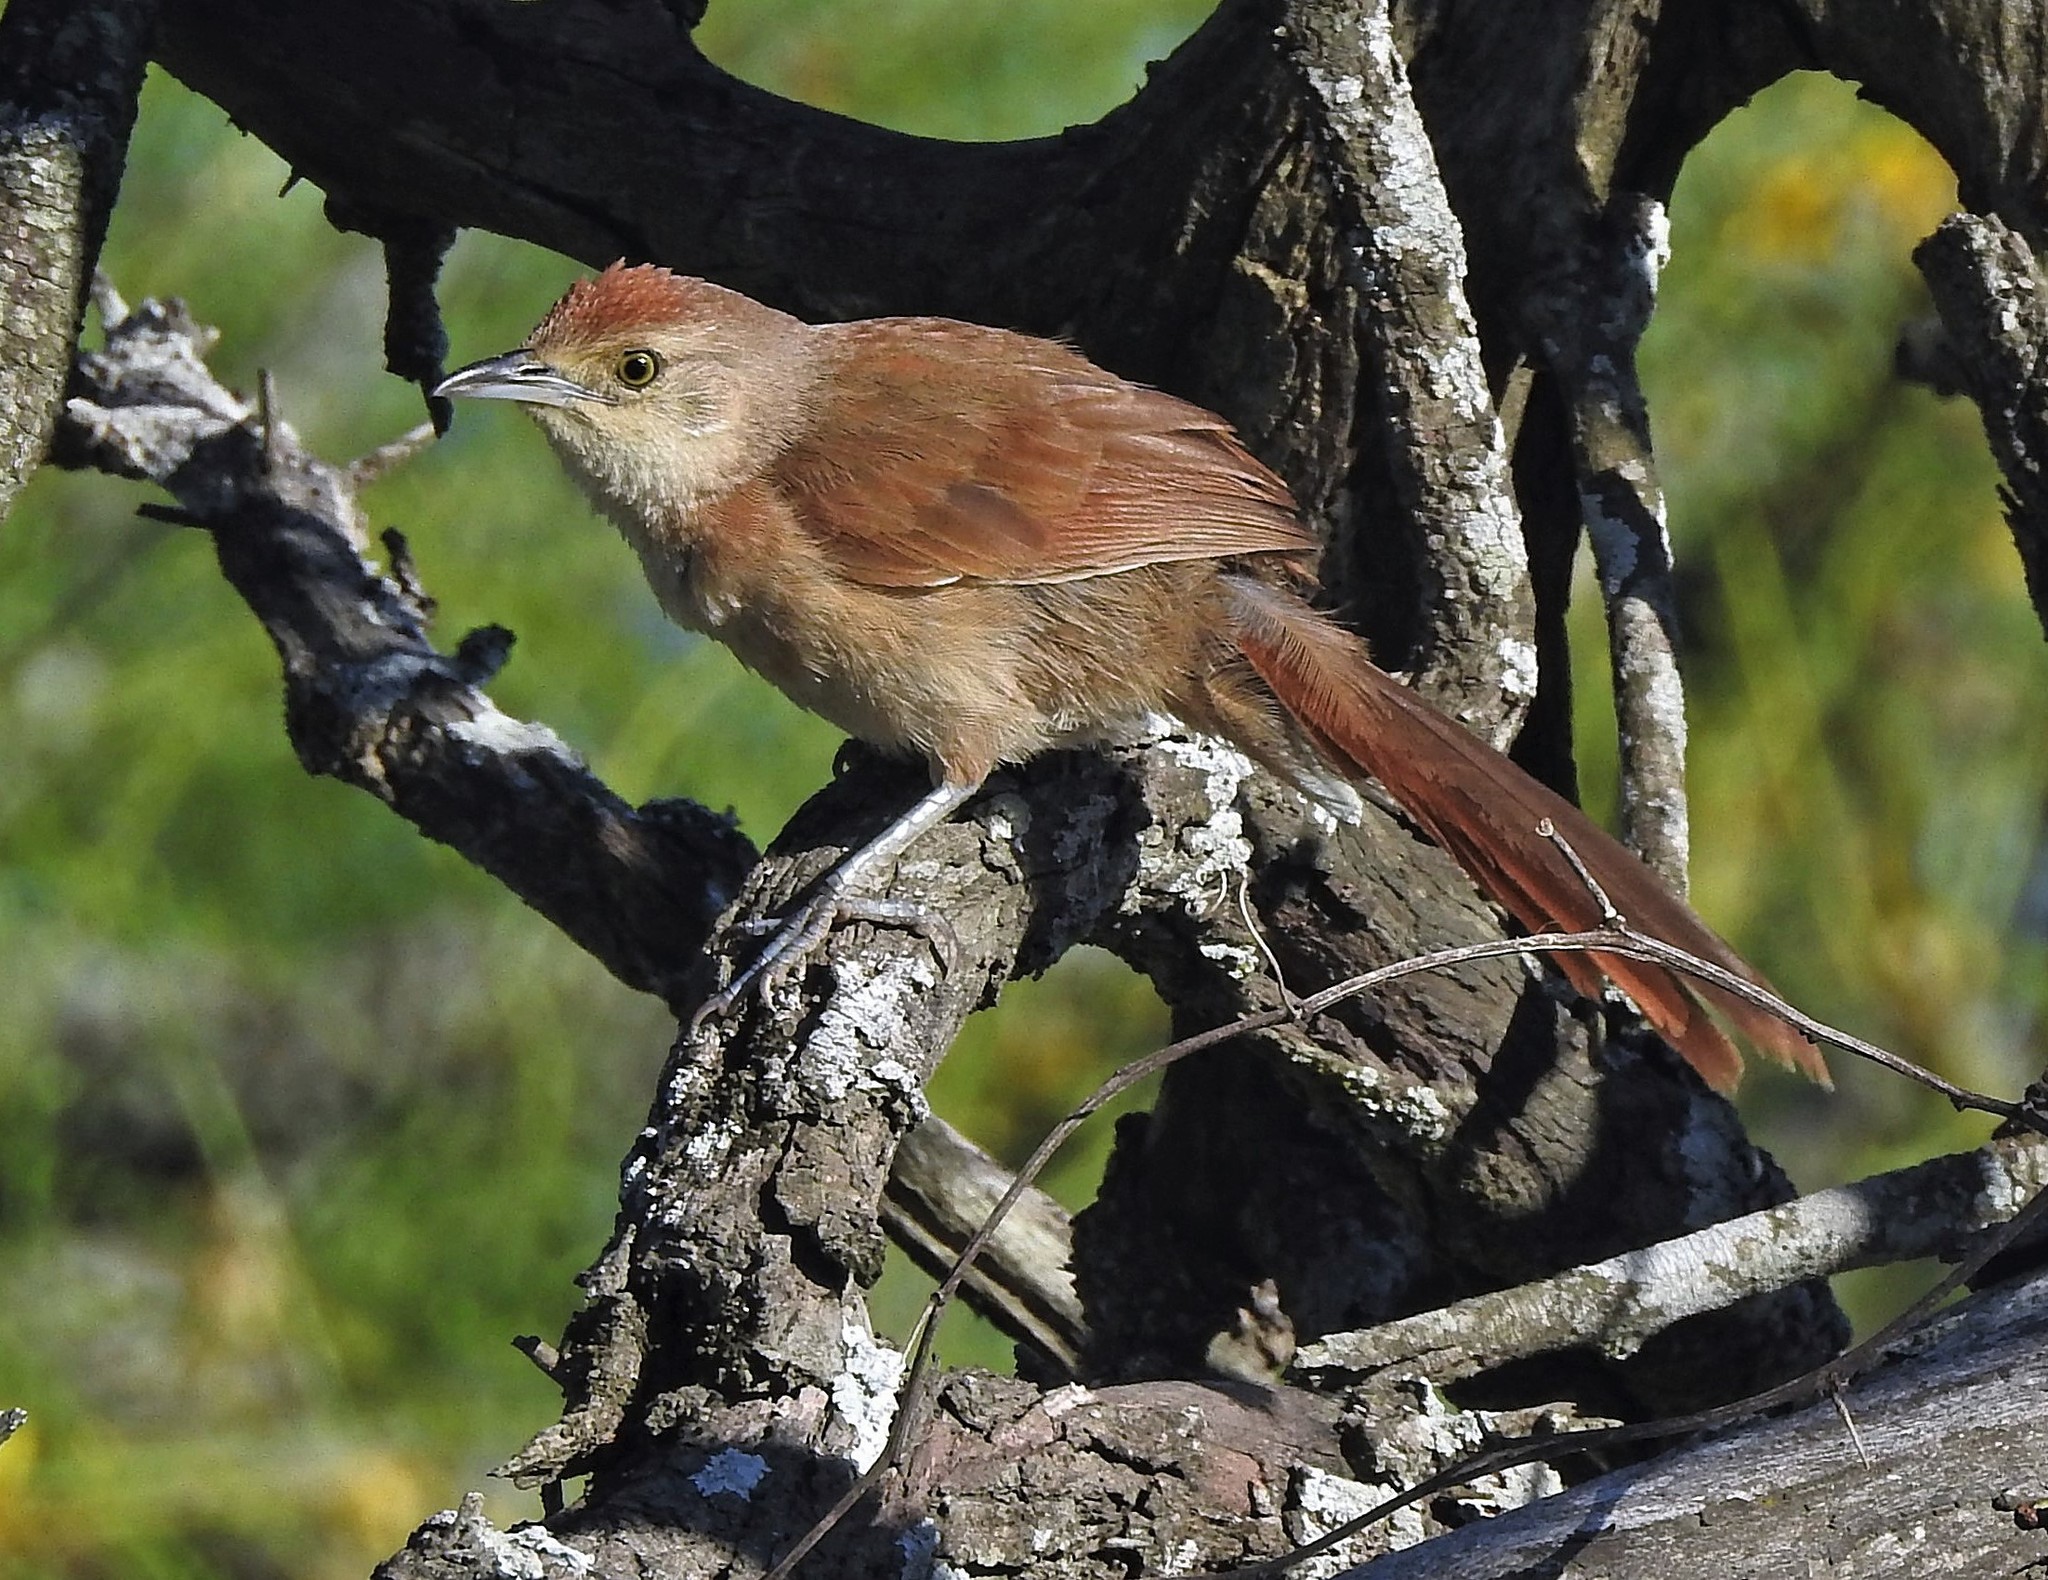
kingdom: Animalia
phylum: Chordata
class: Aves
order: Passeriformes
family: Furnariidae
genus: Phacellodomus
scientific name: Phacellodomus striaticollis
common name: Freckle-breasted thornbird
